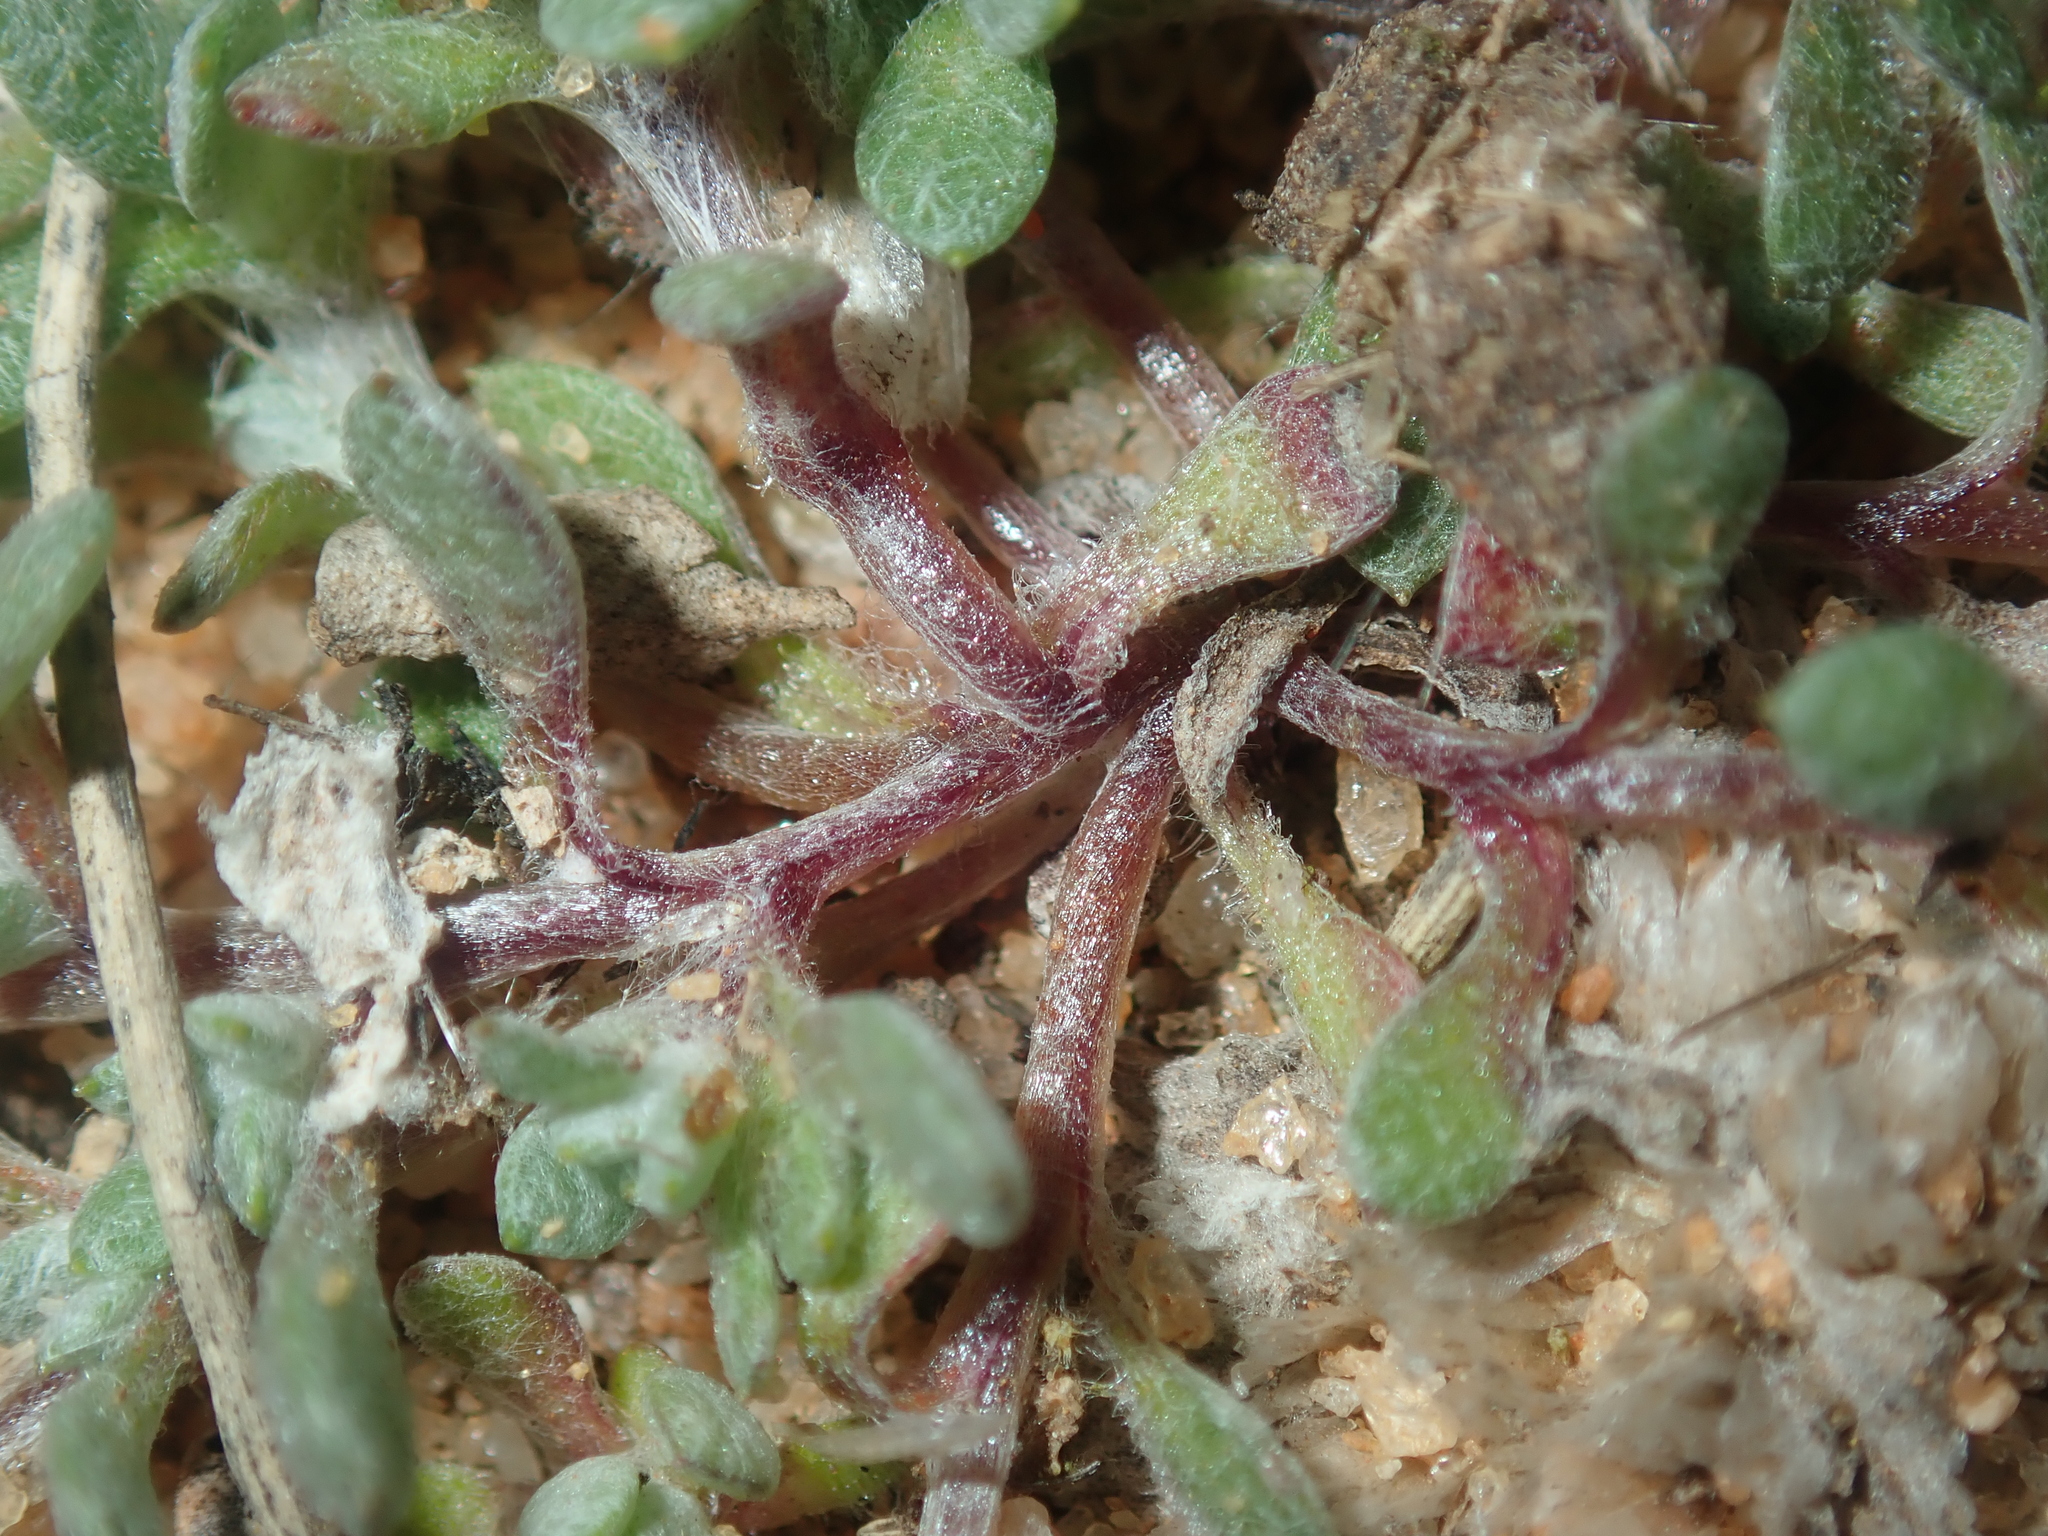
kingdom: Plantae
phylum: Tracheophyta
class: Magnoliopsida
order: Asterales
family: Asteraceae
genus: Actinobole
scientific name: Actinobole uliginosum
